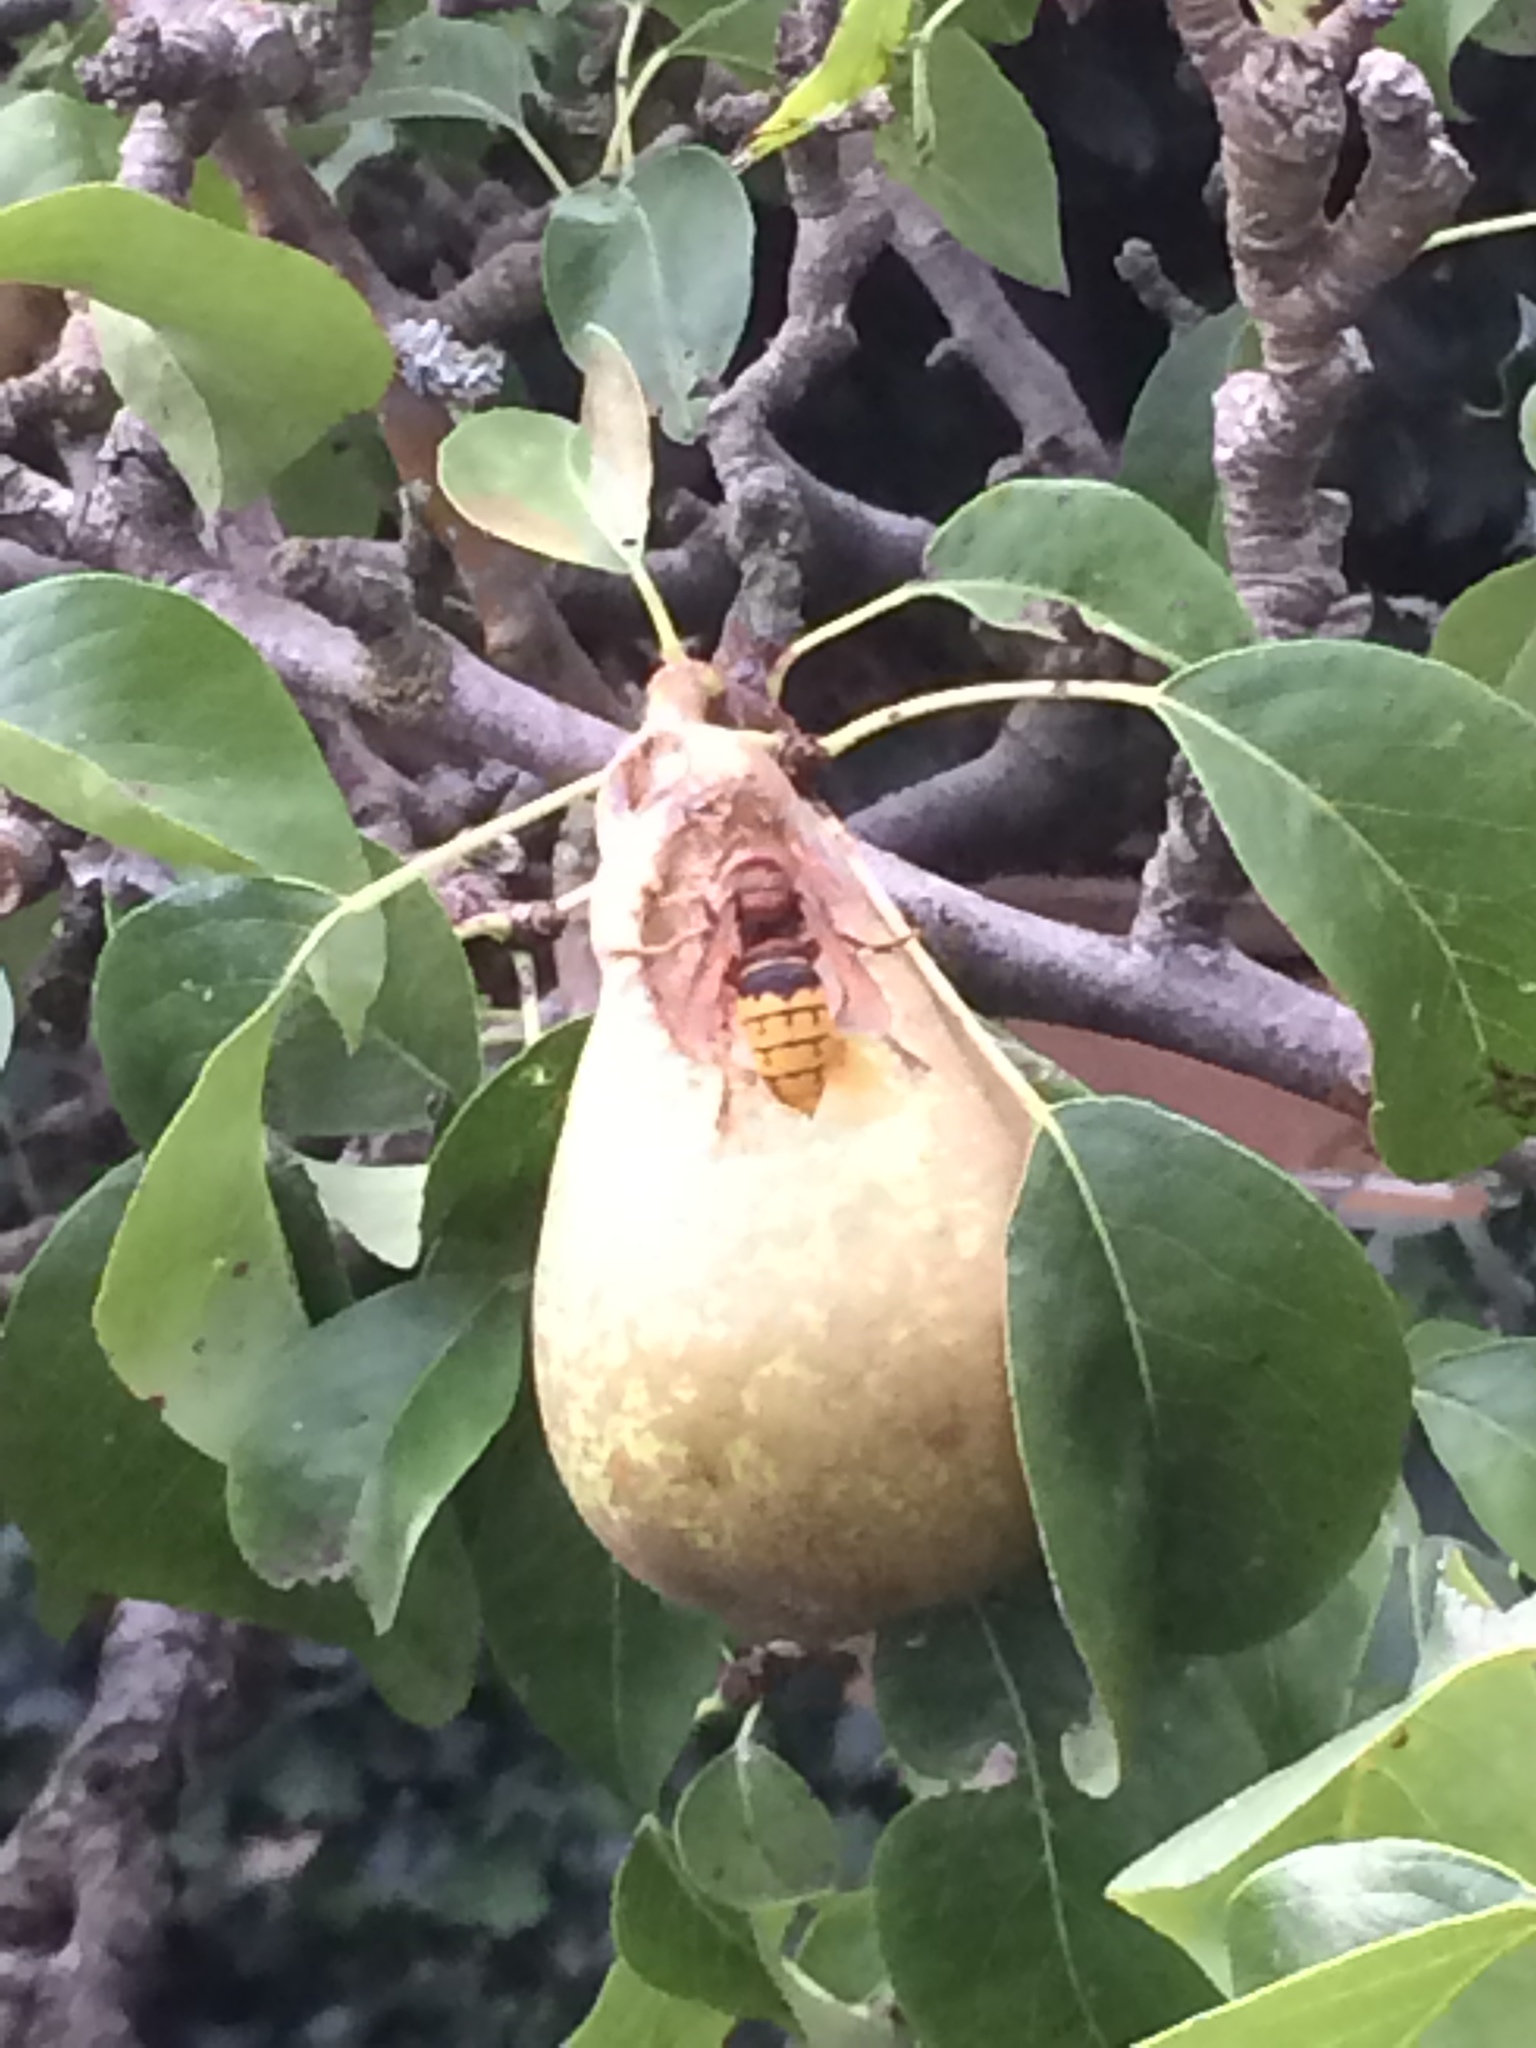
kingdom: Animalia
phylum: Arthropoda
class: Insecta
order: Hymenoptera
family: Vespidae
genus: Vespa
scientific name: Vespa crabro
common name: Hornet
